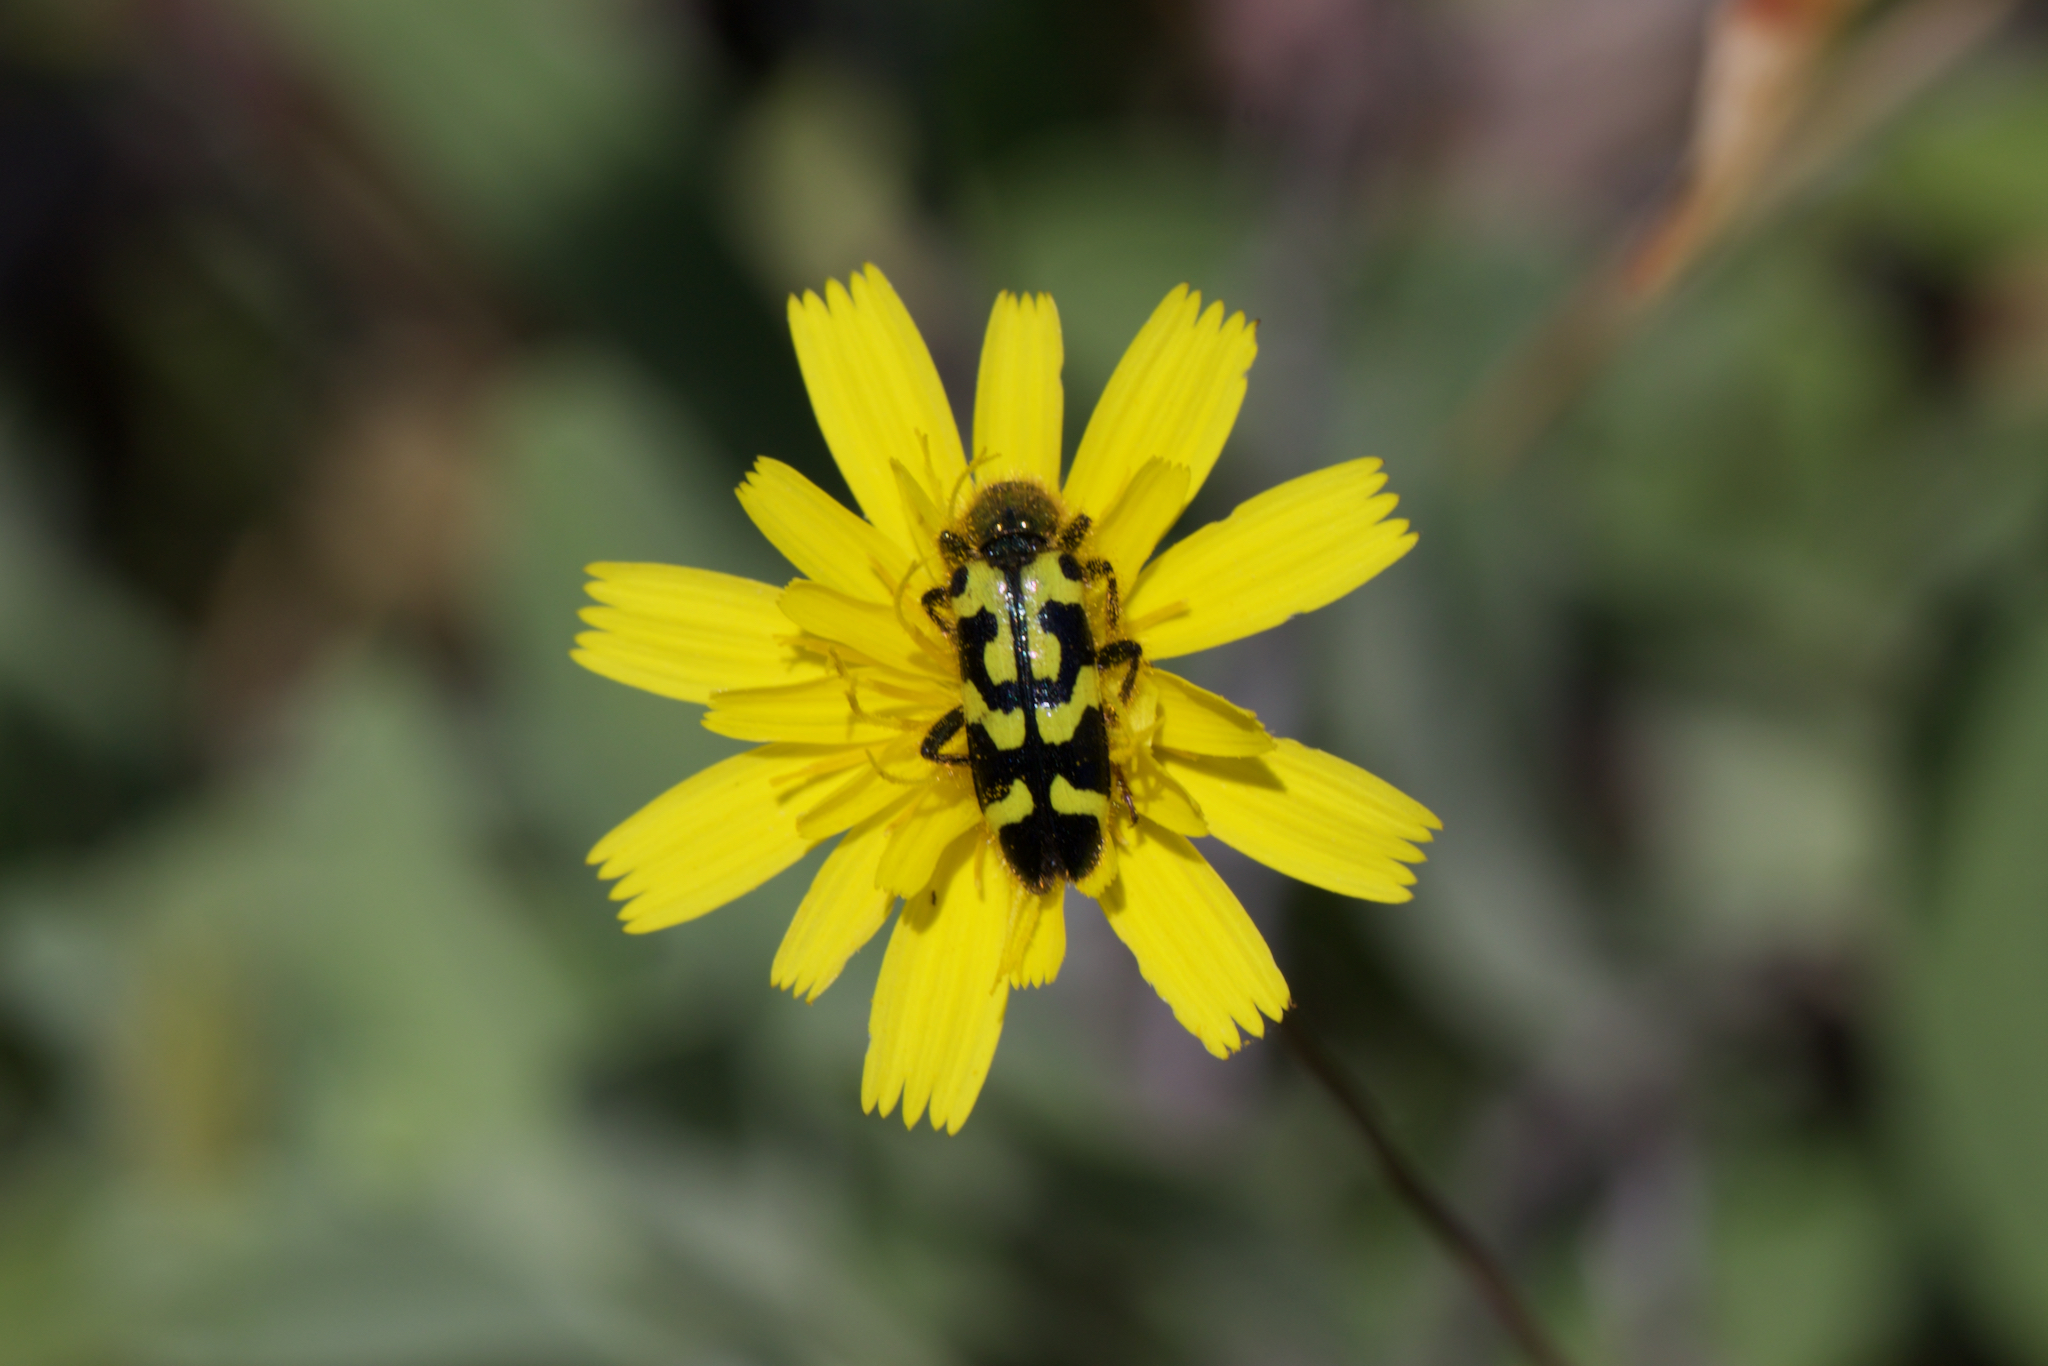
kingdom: Animalia
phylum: Arthropoda
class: Insecta
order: Coleoptera
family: Cleridae
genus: Trichodes
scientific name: Trichodes ornatus
